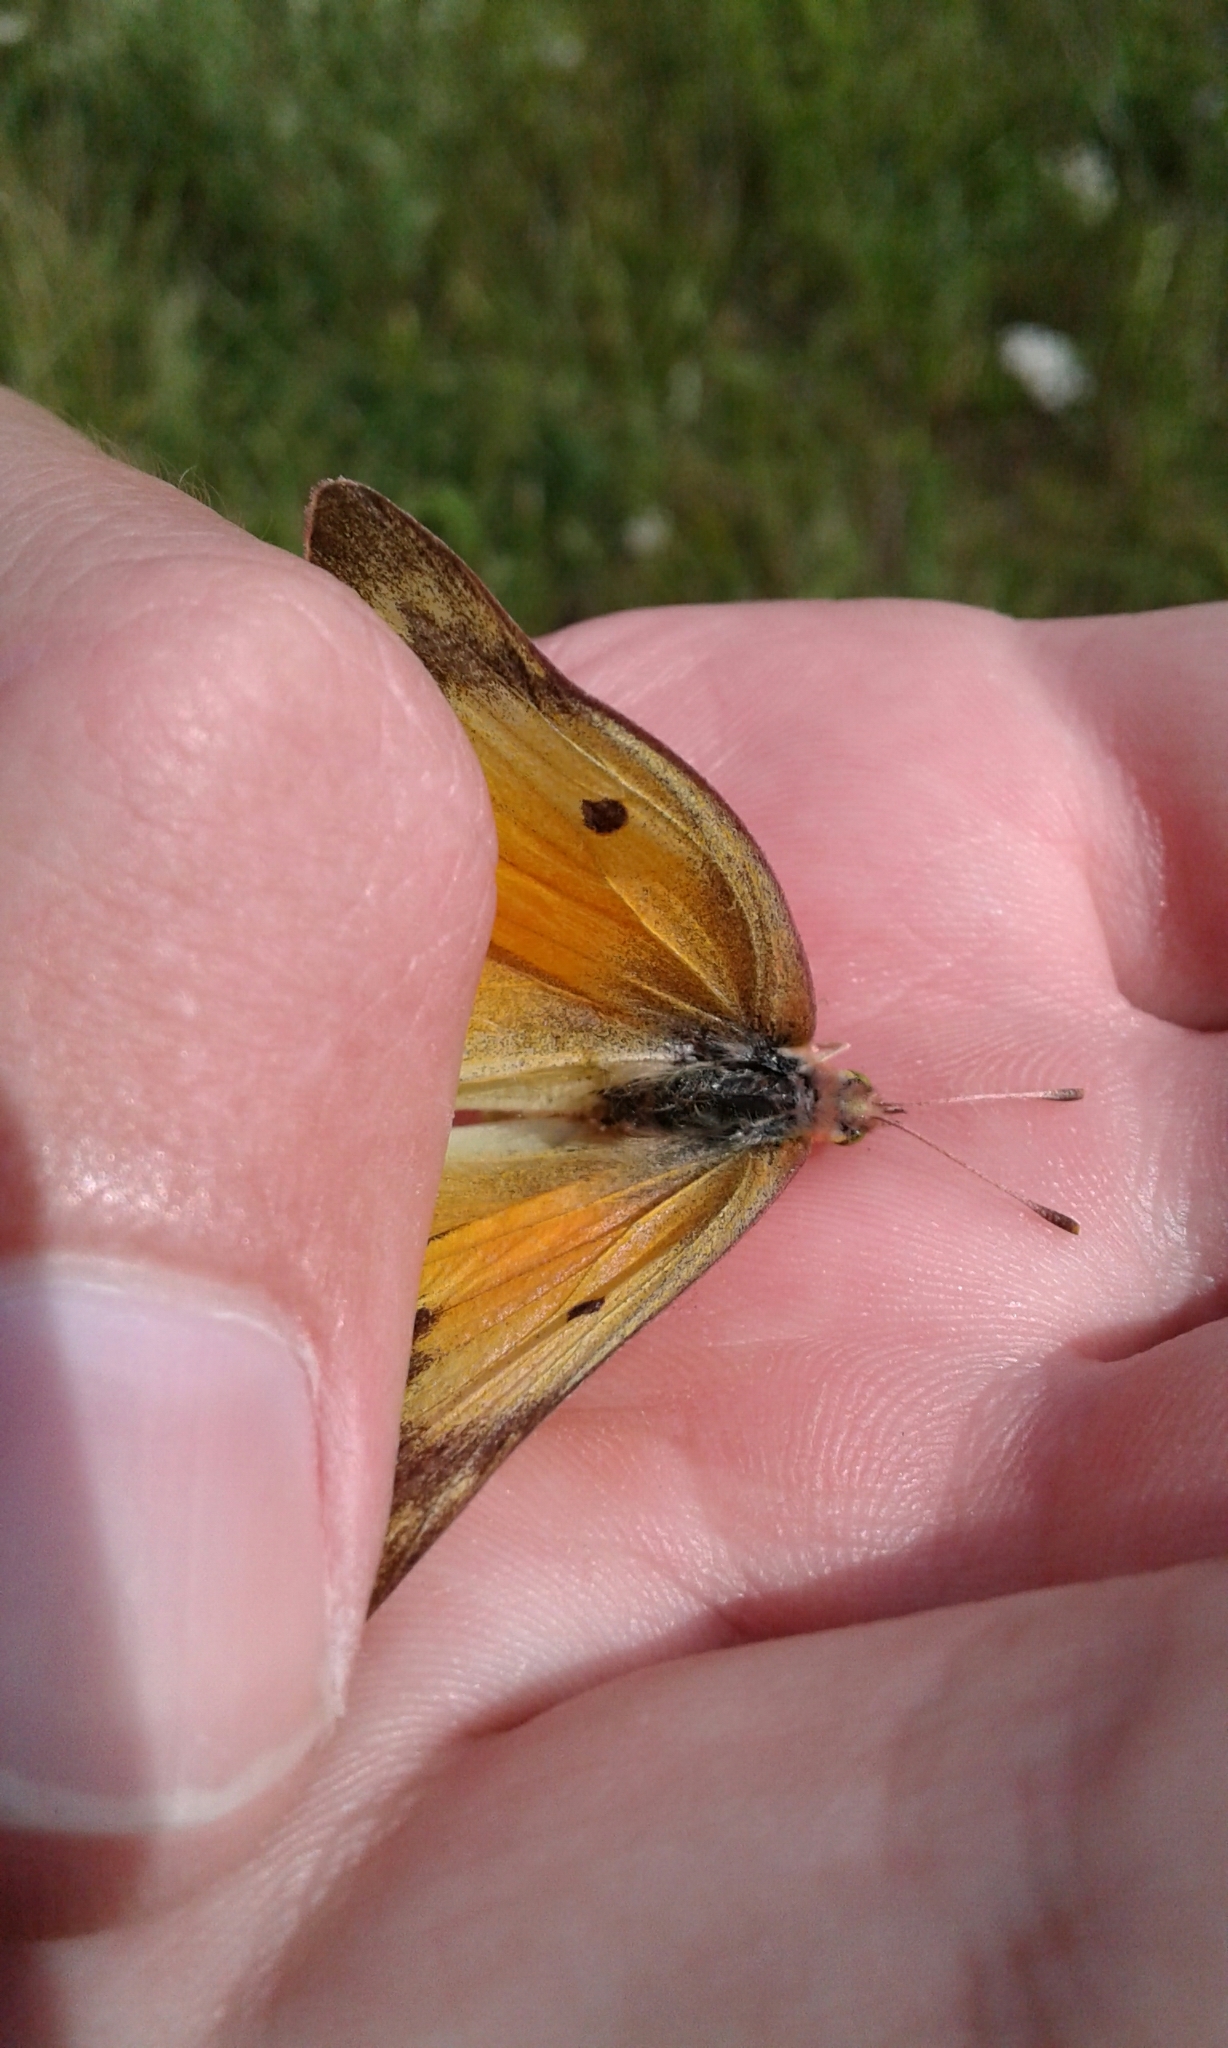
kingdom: Animalia
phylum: Arthropoda
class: Insecta
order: Lepidoptera
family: Pieridae
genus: Colias
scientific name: Colias eurytheme
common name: Alfalfa butterfly
